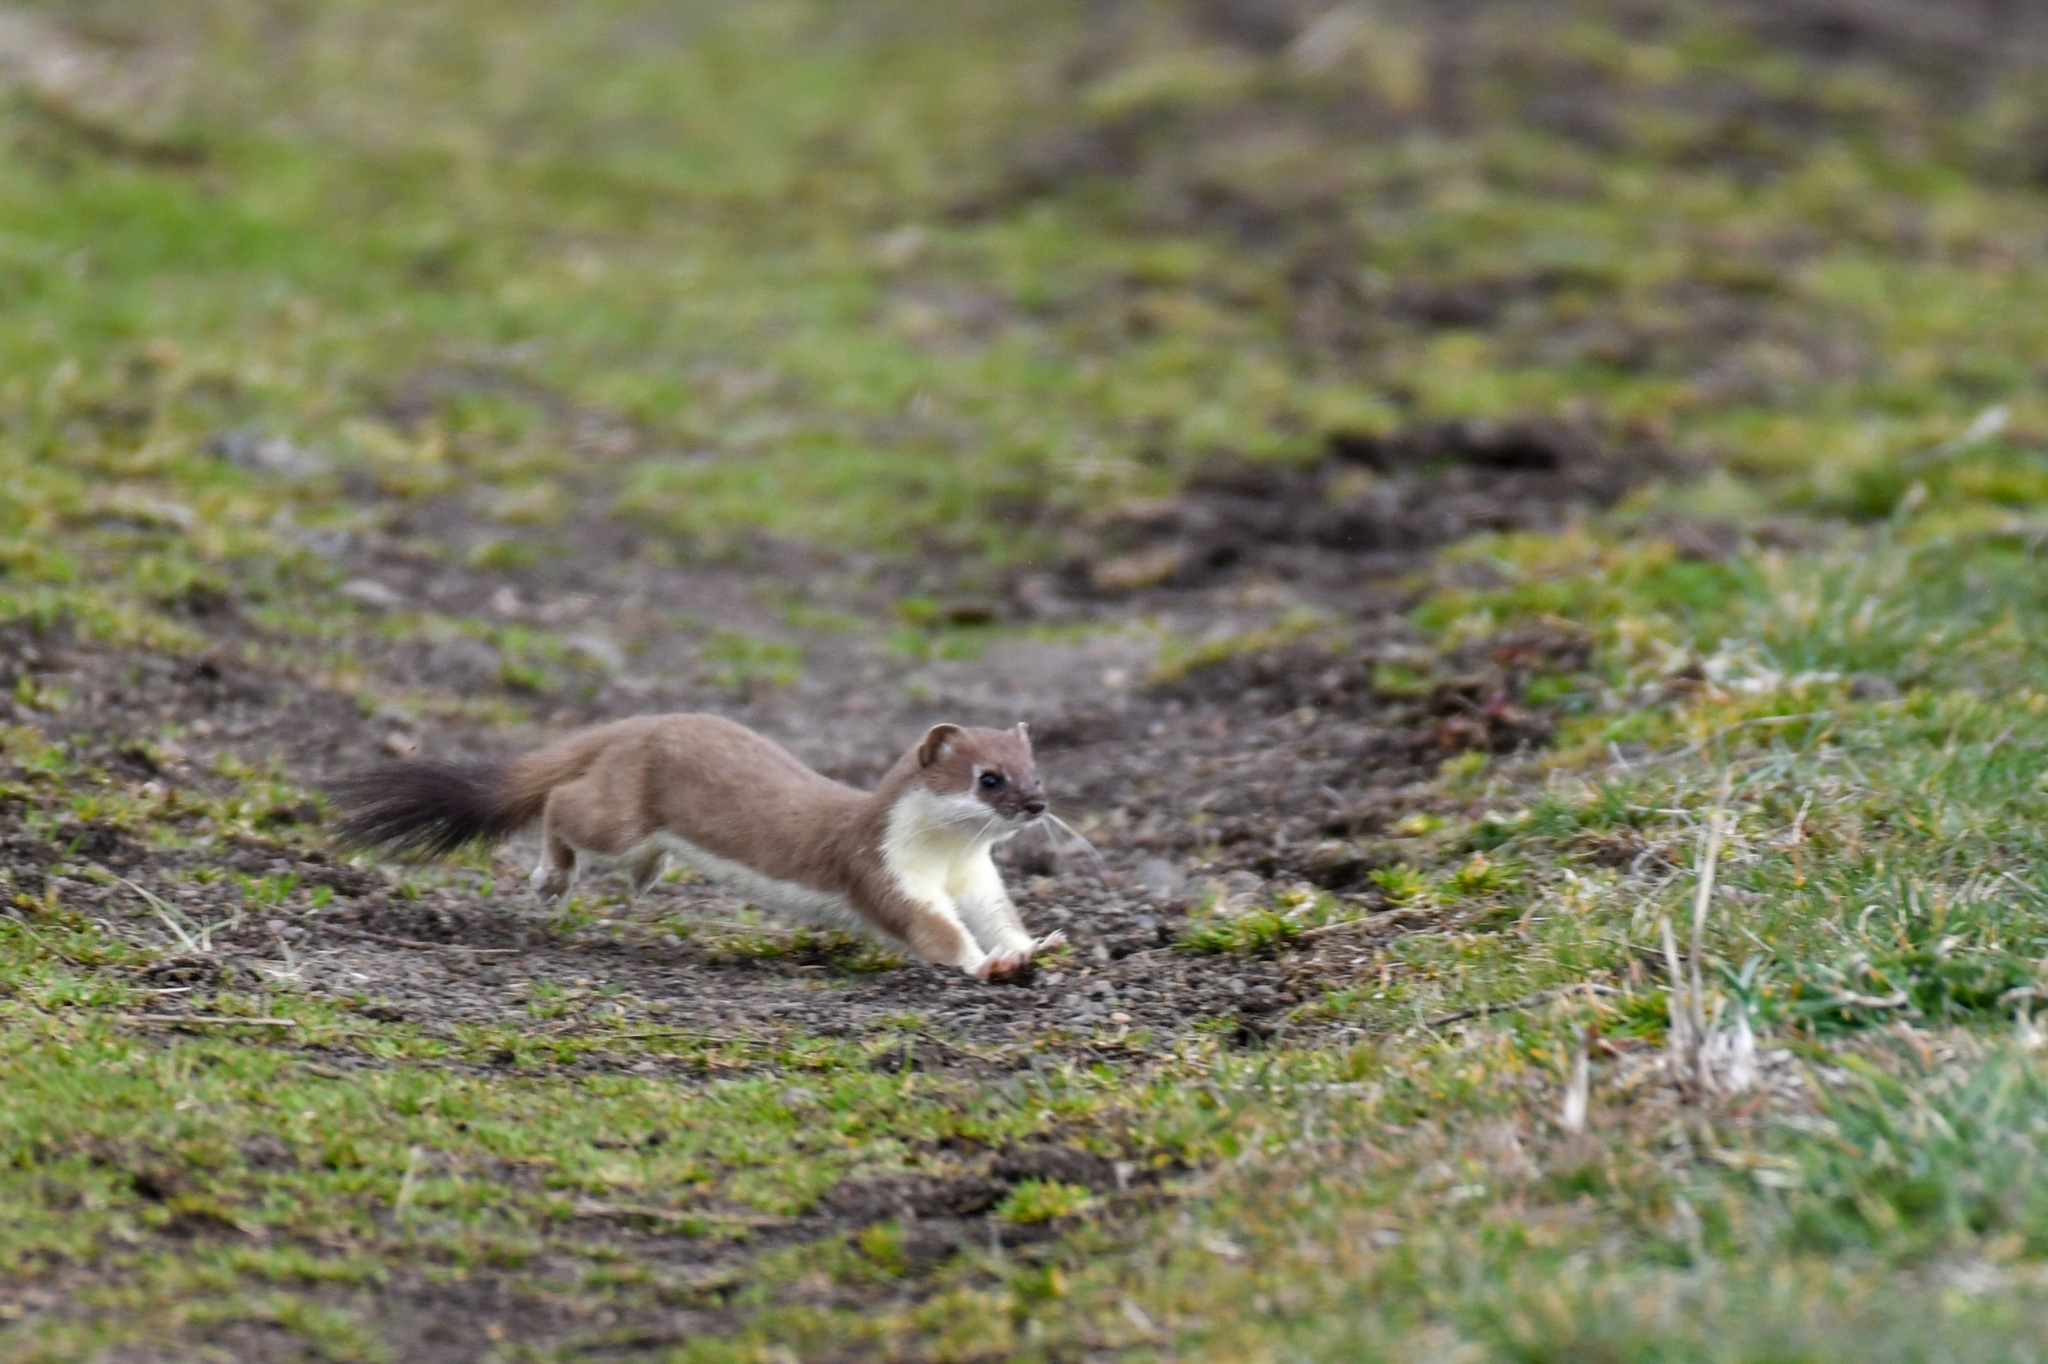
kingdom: Animalia
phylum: Chordata
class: Mammalia
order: Carnivora
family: Mustelidae
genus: Mustela
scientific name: Mustela erminea
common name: Stoat
